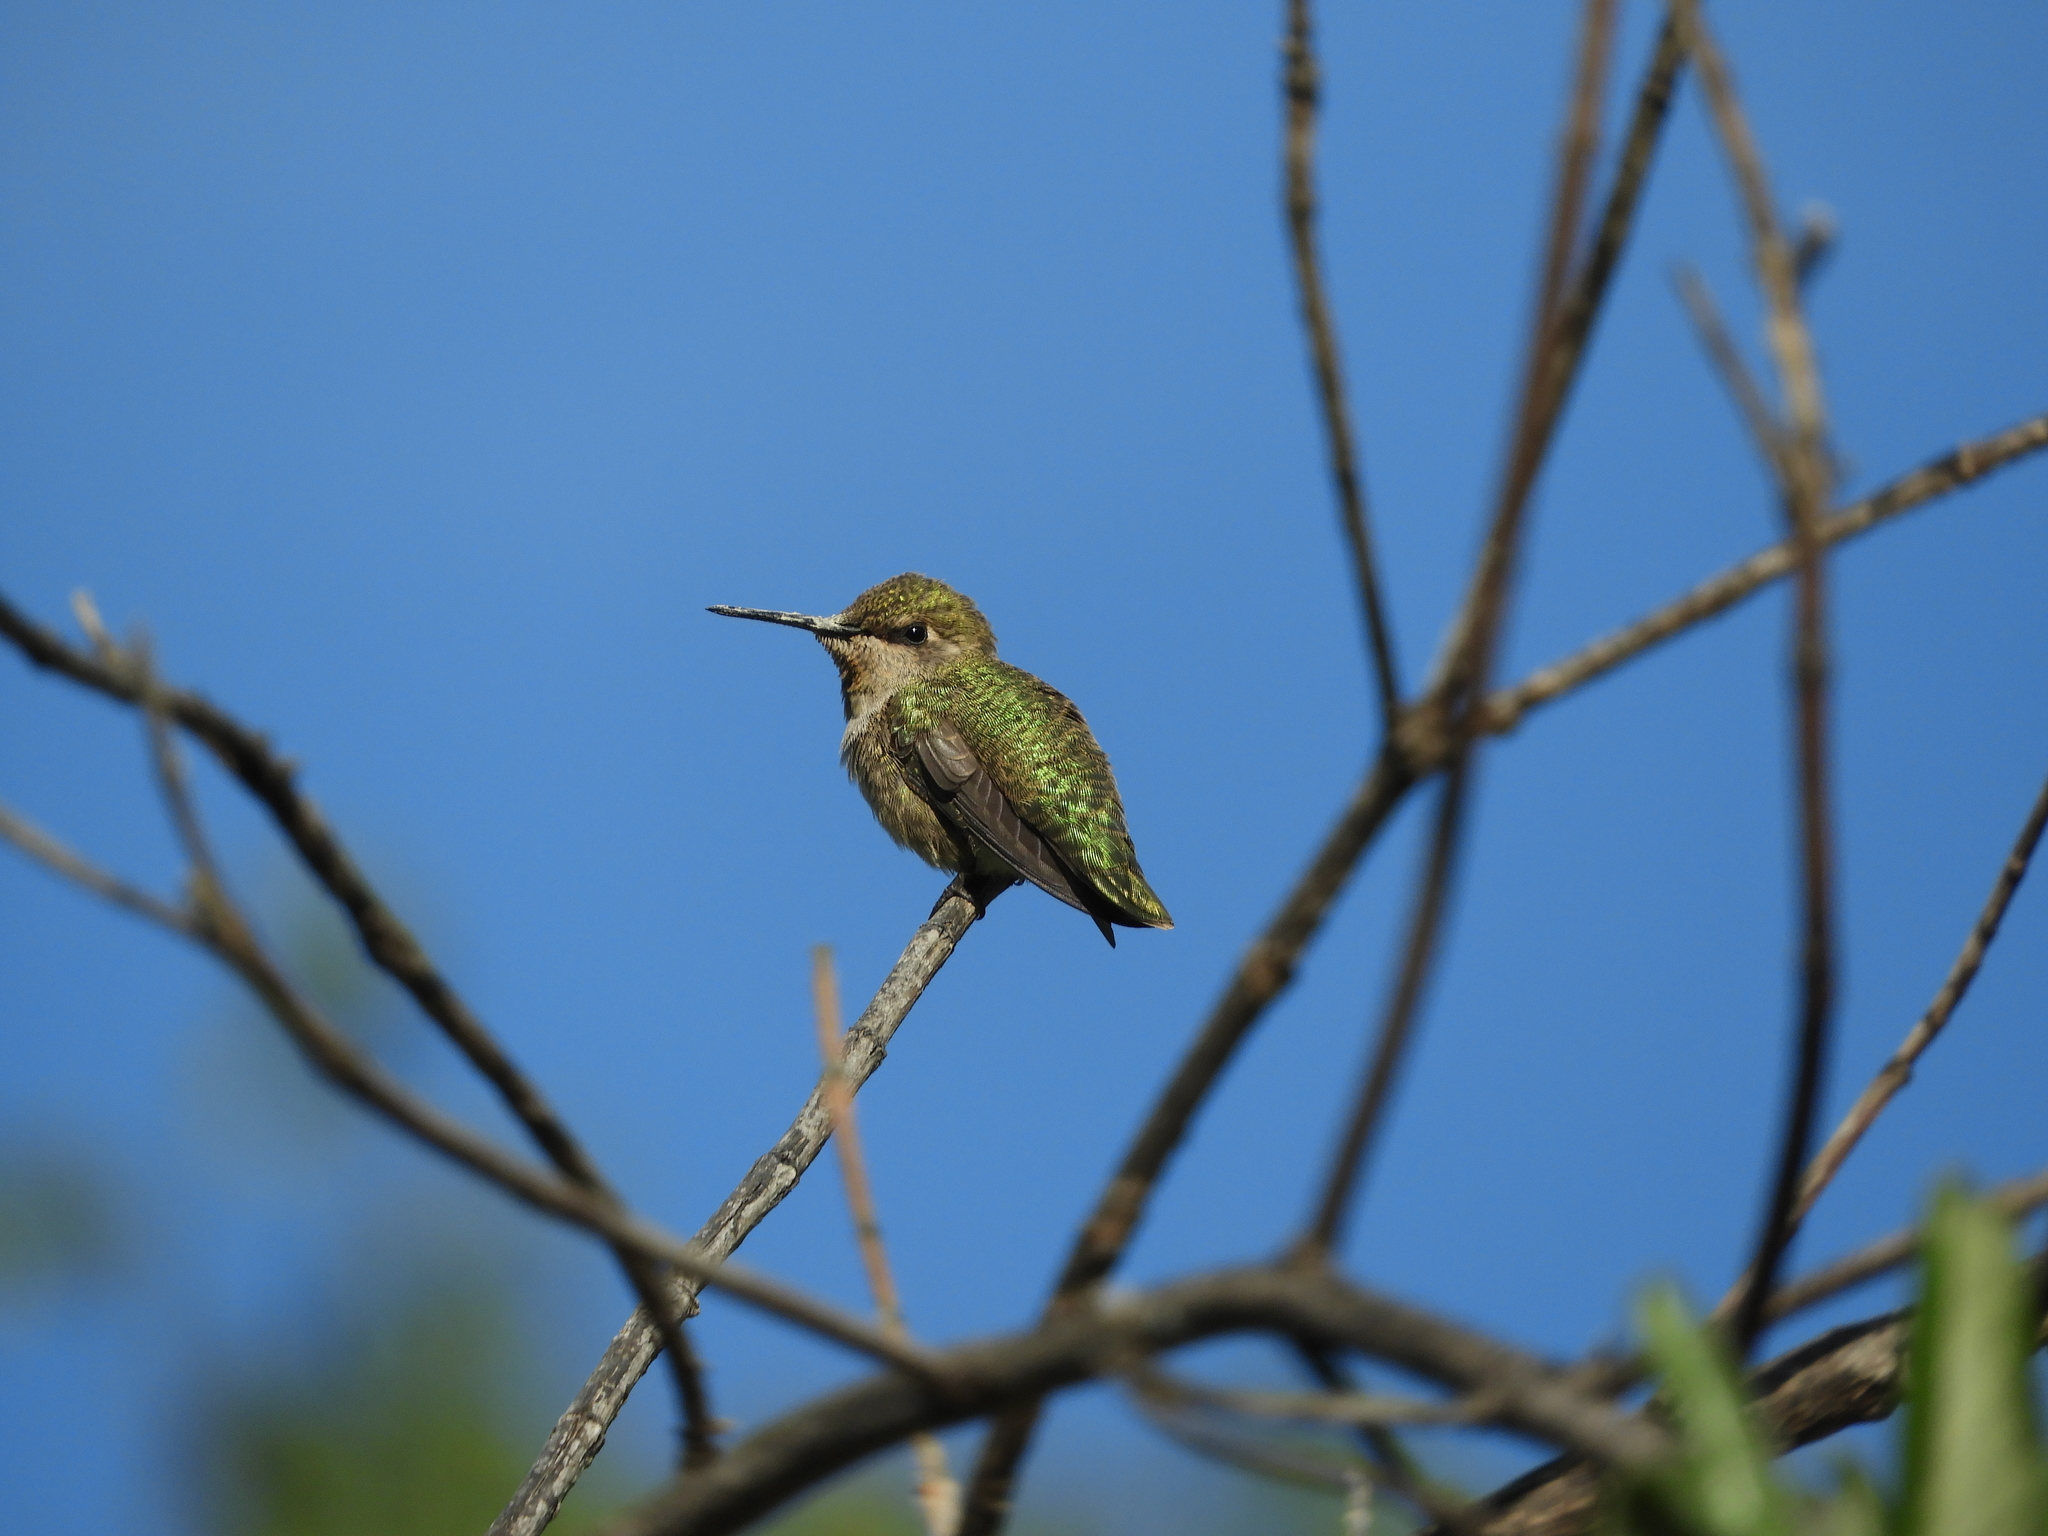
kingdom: Animalia
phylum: Chordata
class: Aves
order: Apodiformes
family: Trochilidae
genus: Calypte
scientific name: Calypte anna
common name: Anna's hummingbird
